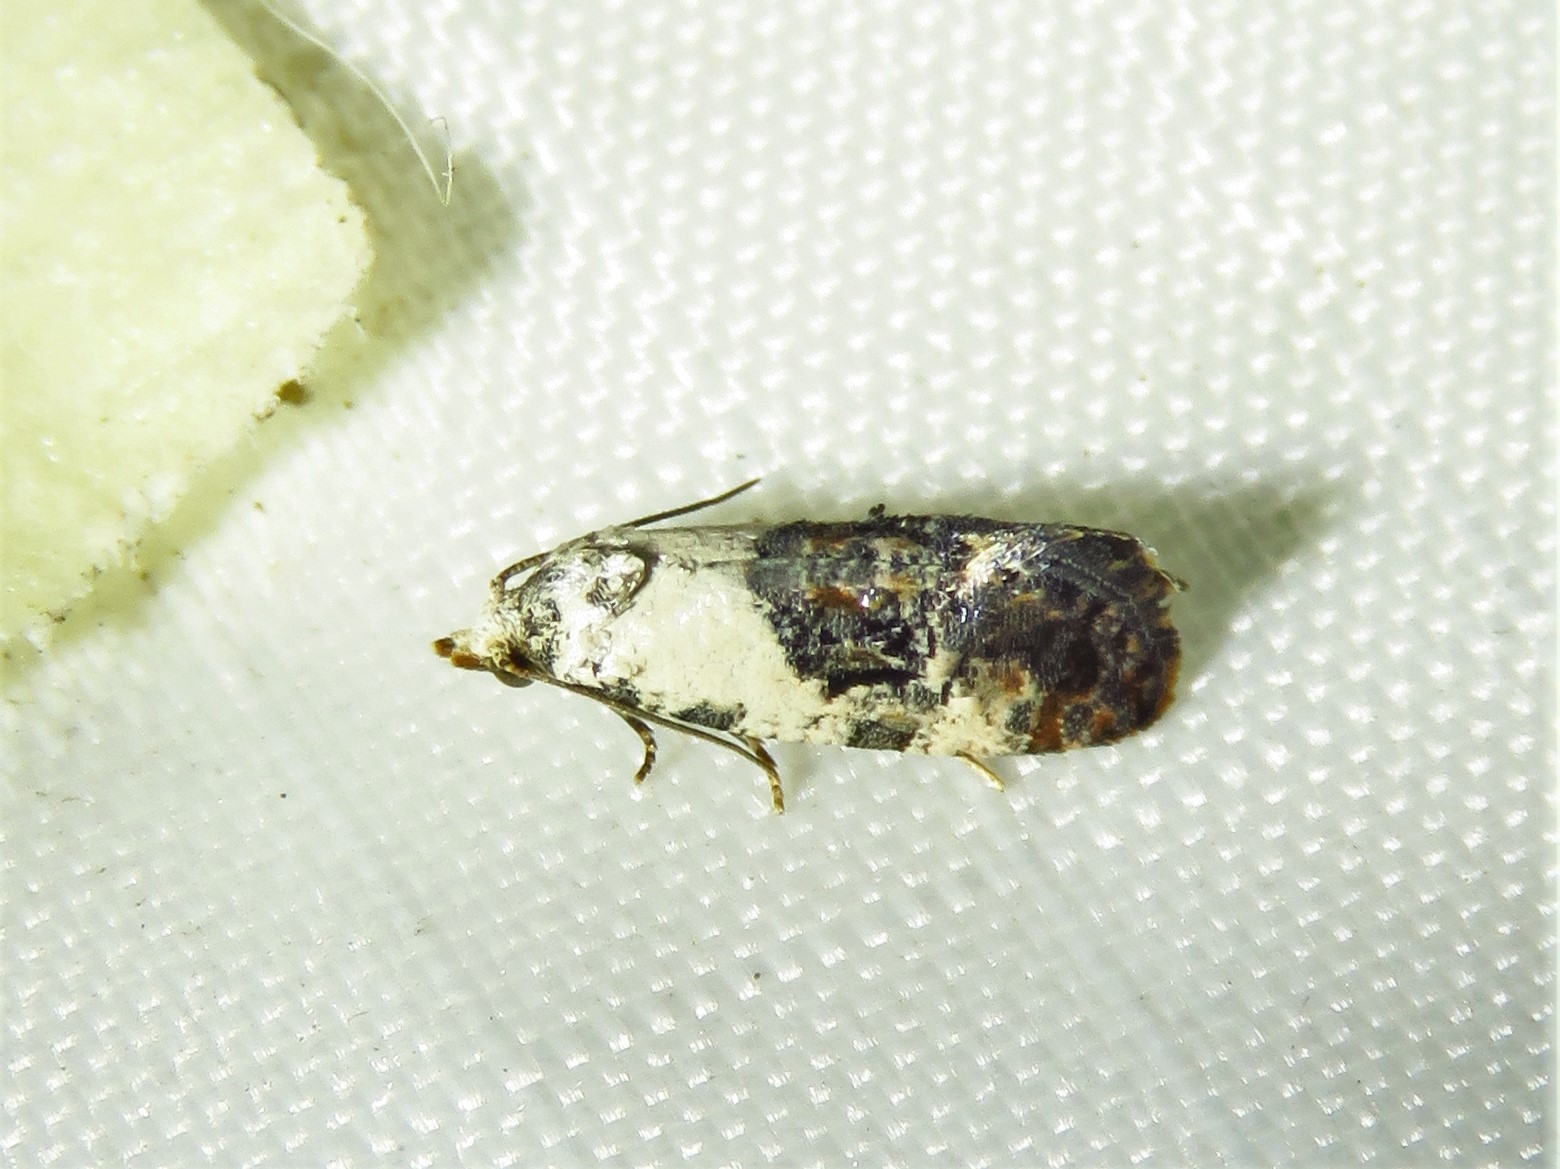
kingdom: Animalia
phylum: Arthropoda
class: Insecta
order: Lepidoptera
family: Tortricidae
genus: Rudenia
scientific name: Rudenia leguminana
